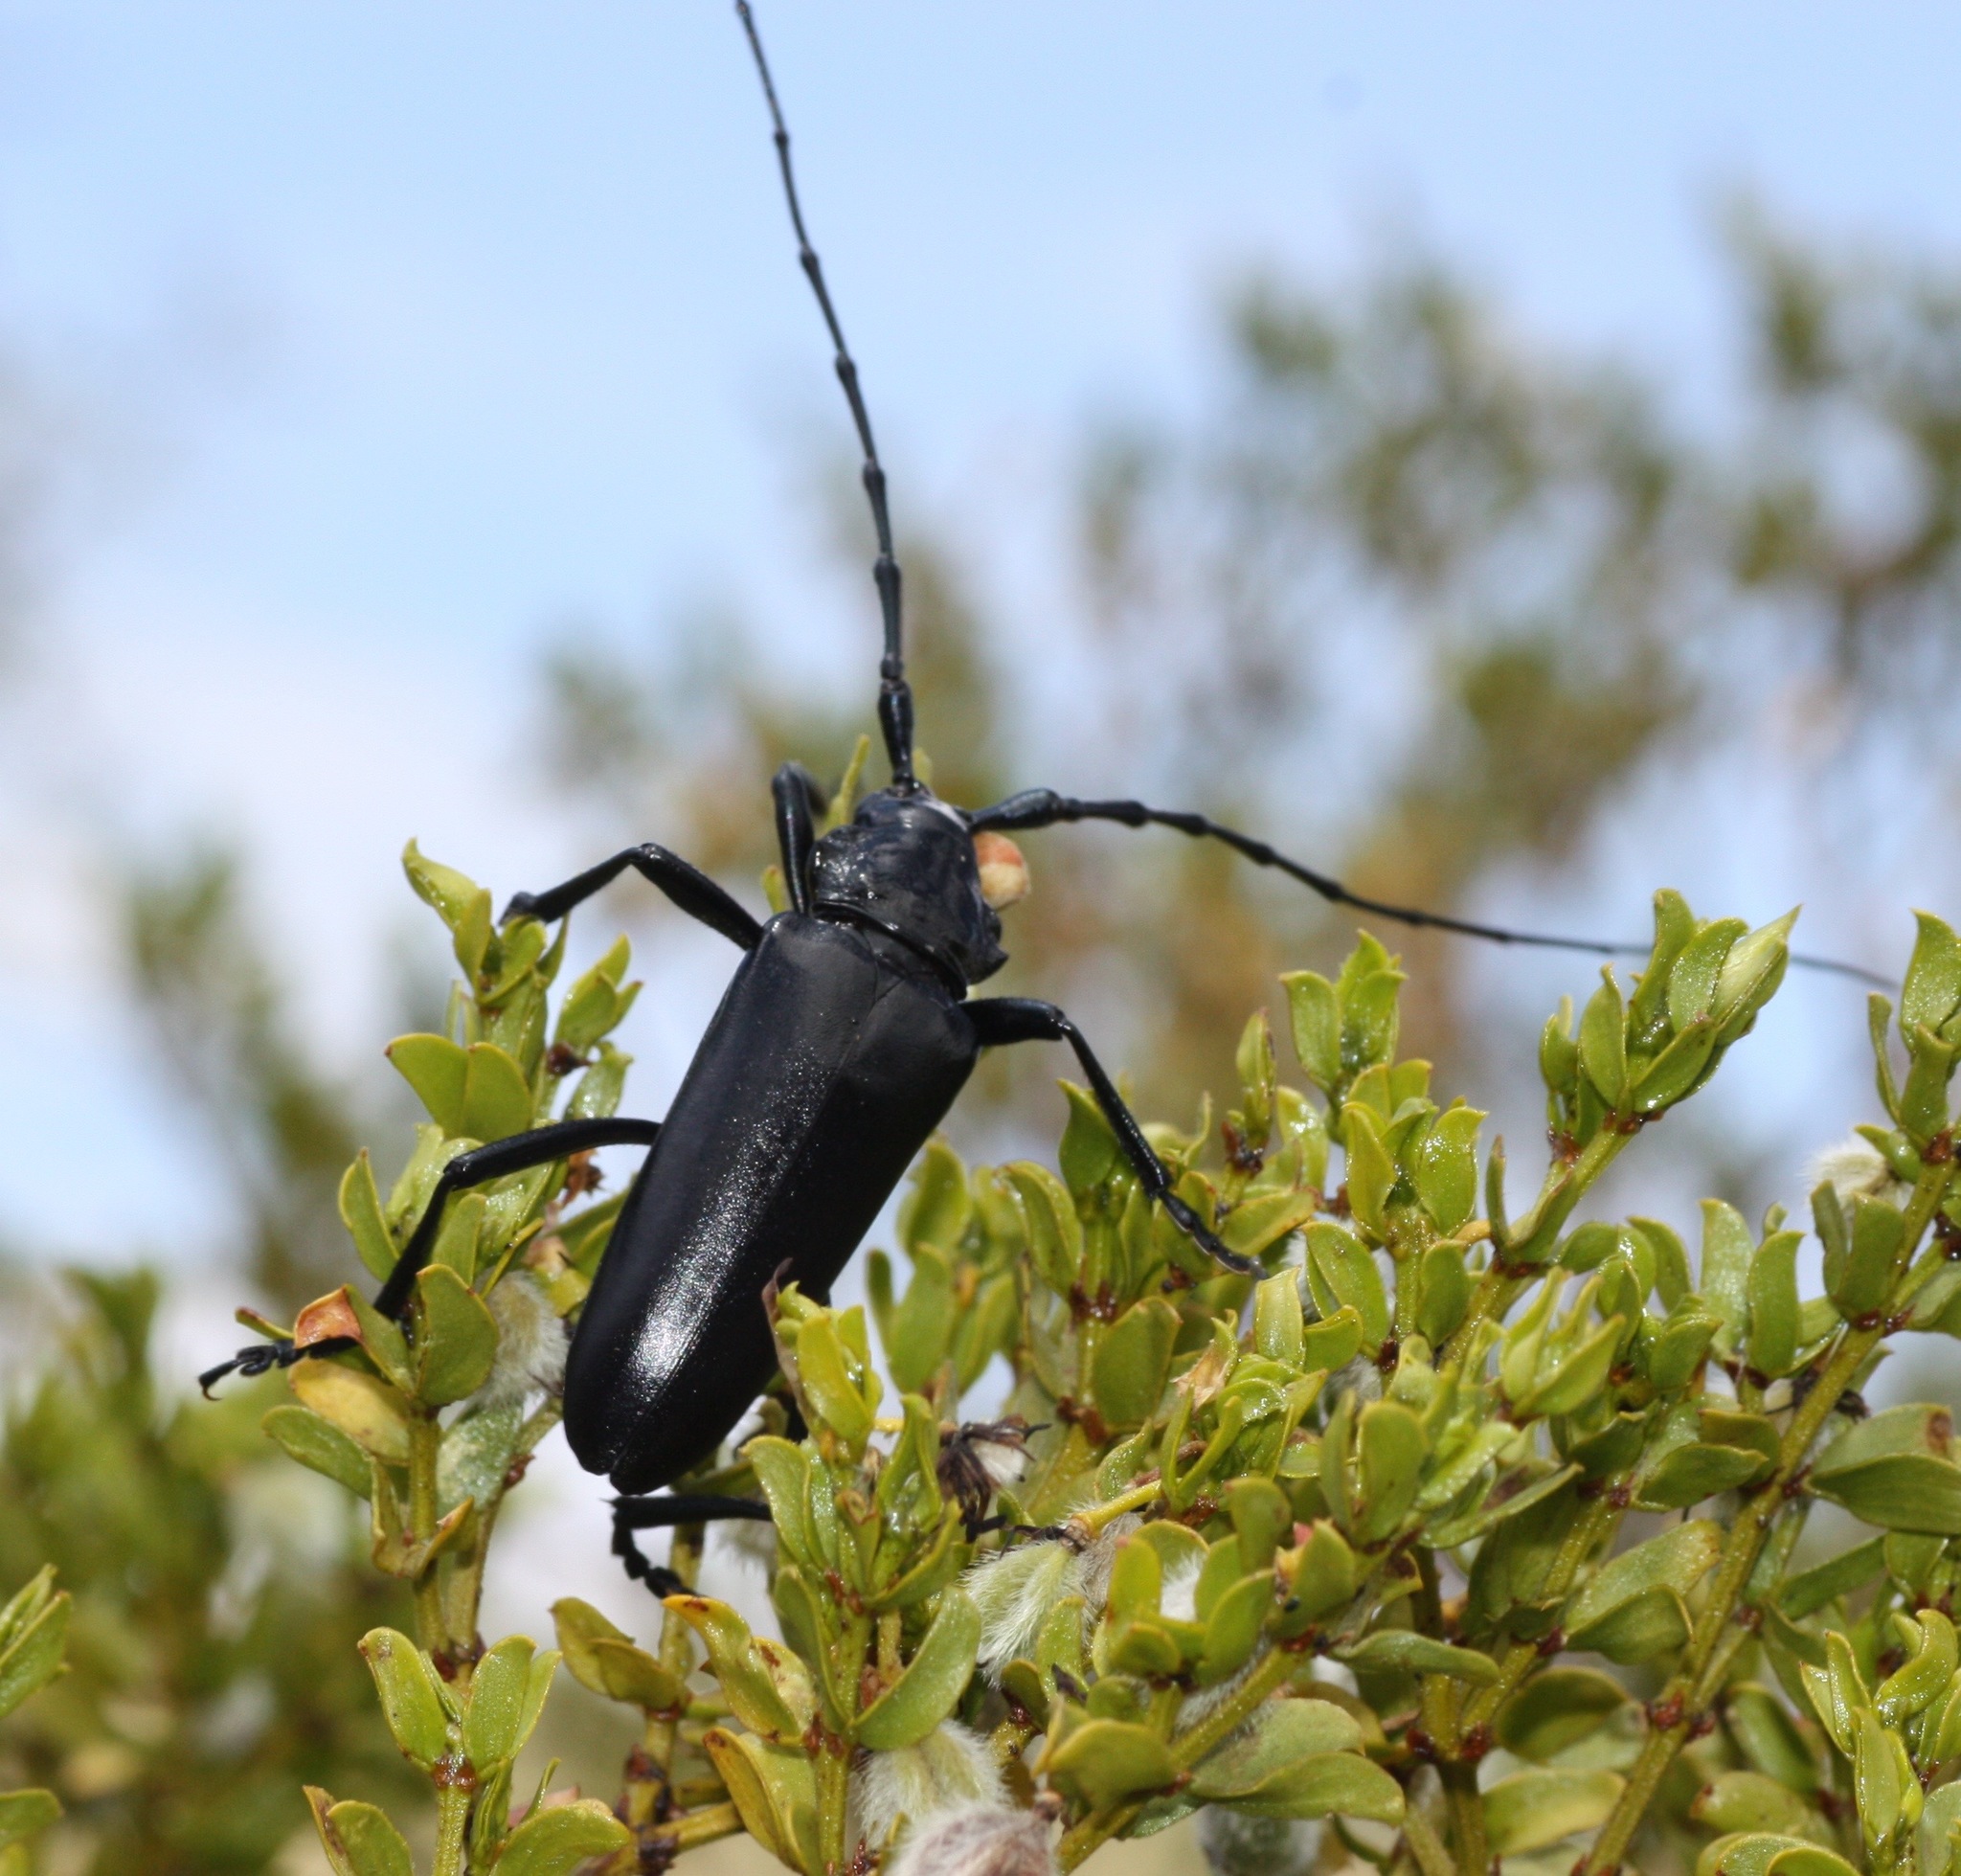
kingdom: Animalia
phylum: Arthropoda
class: Insecta
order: Coleoptera
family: Cerambycidae
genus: Stenaspis
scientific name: Stenaspis solitaria
